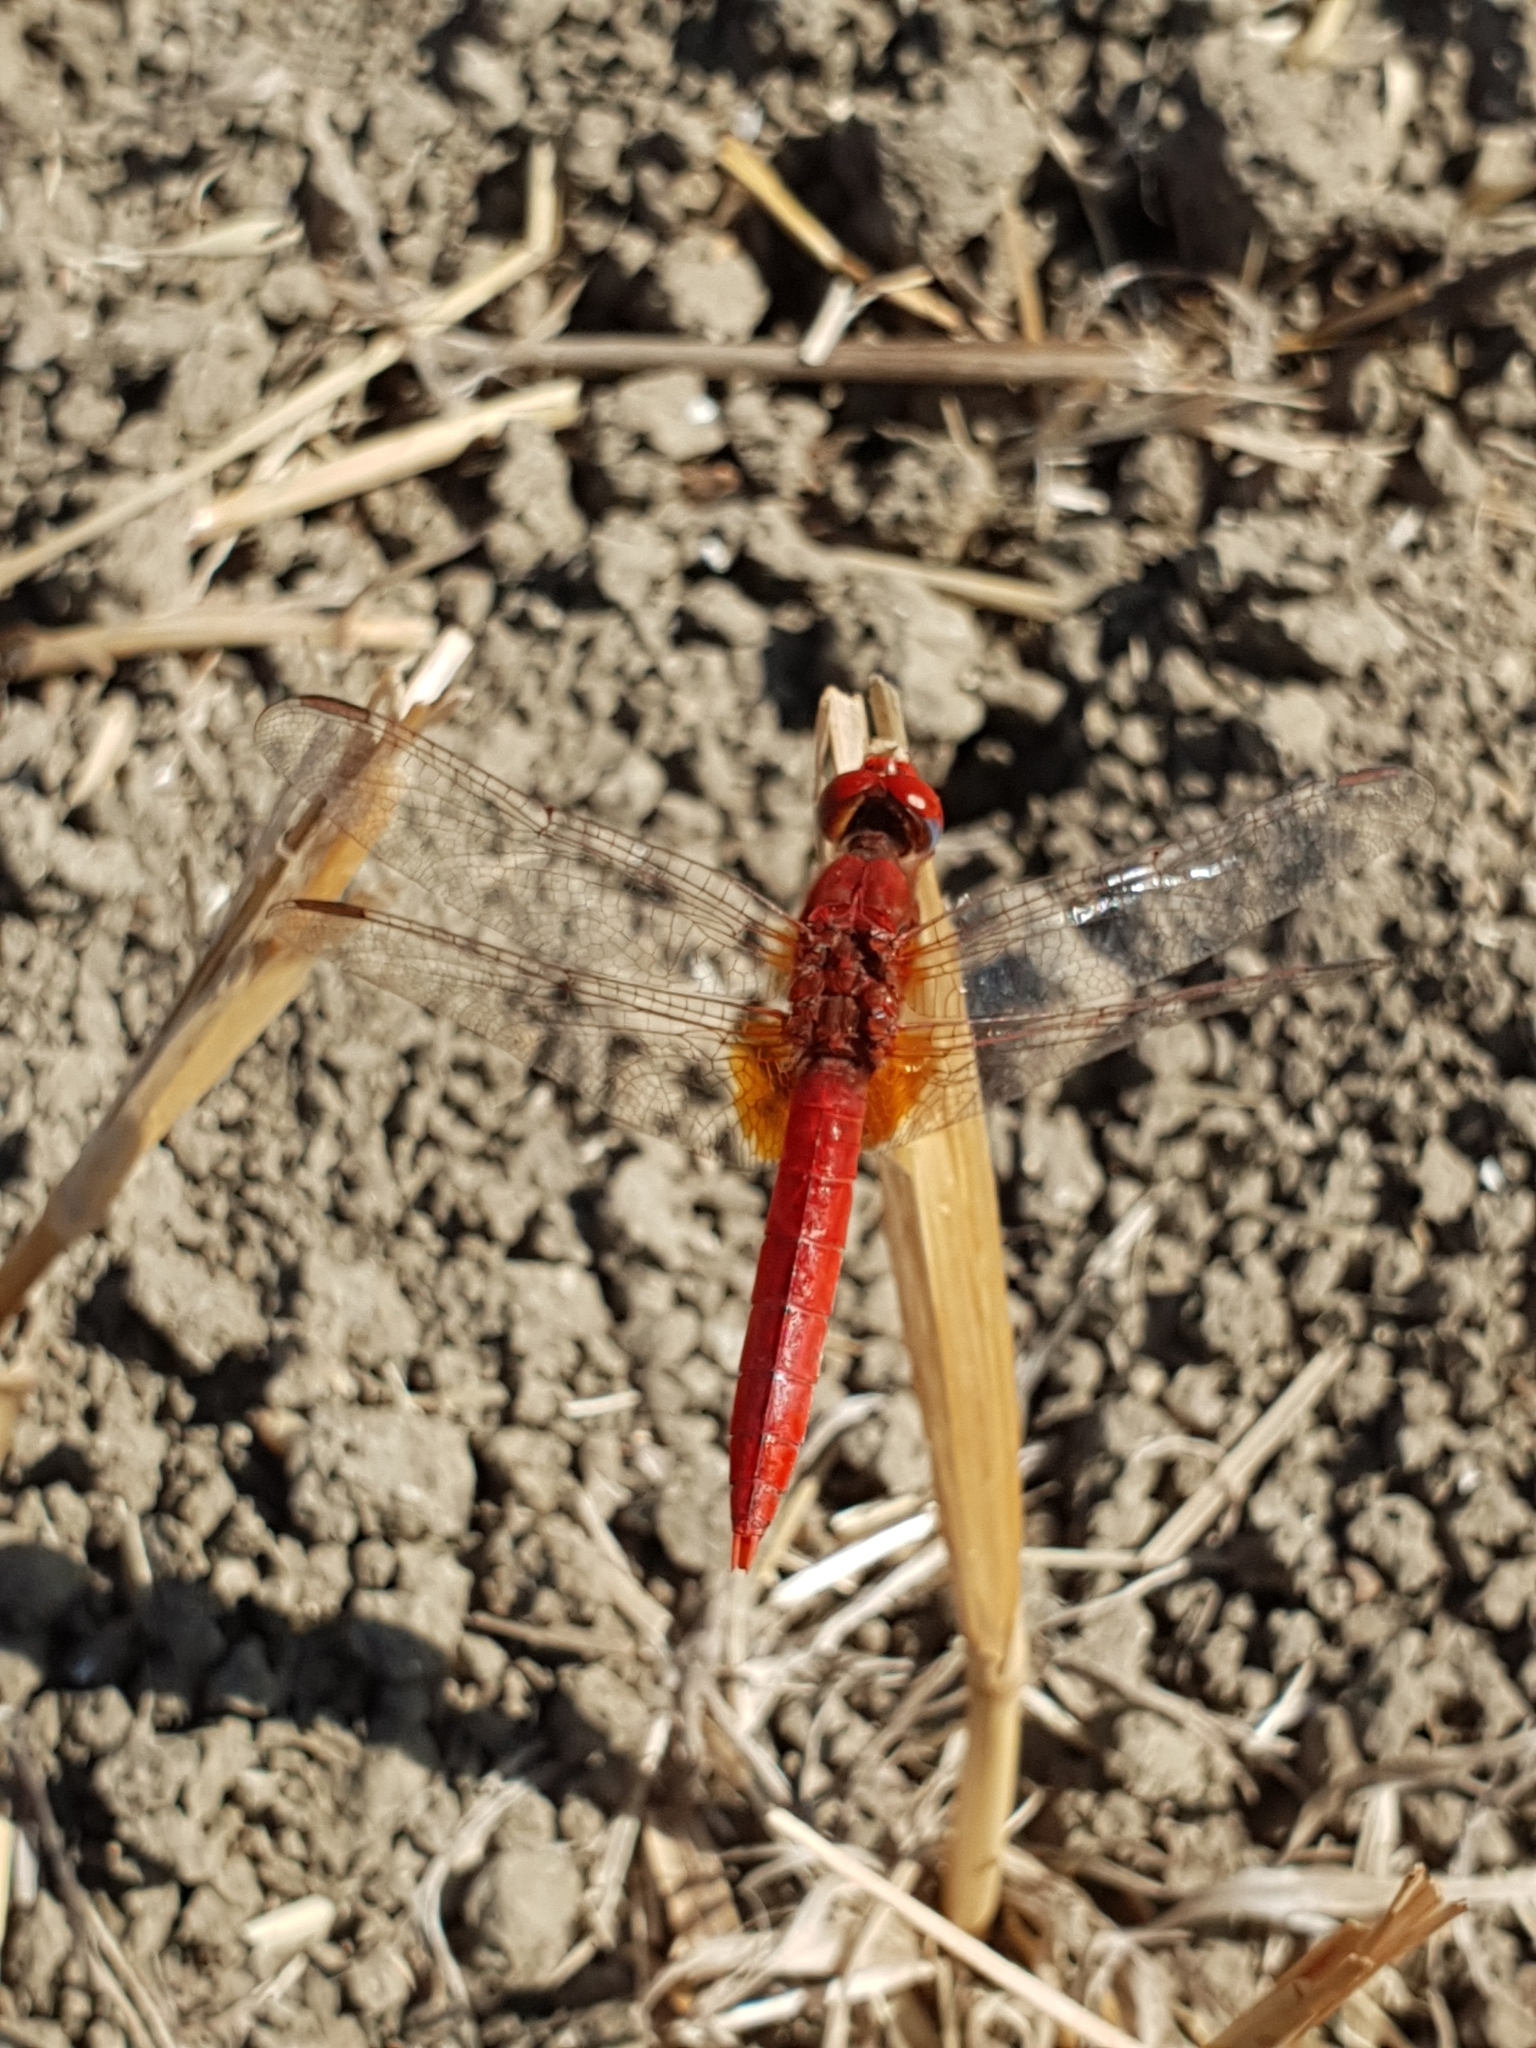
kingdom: Animalia
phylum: Arthropoda
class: Insecta
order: Odonata
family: Libellulidae
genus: Crocothemis
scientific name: Crocothemis erythraea
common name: Scarlet dragonfly
